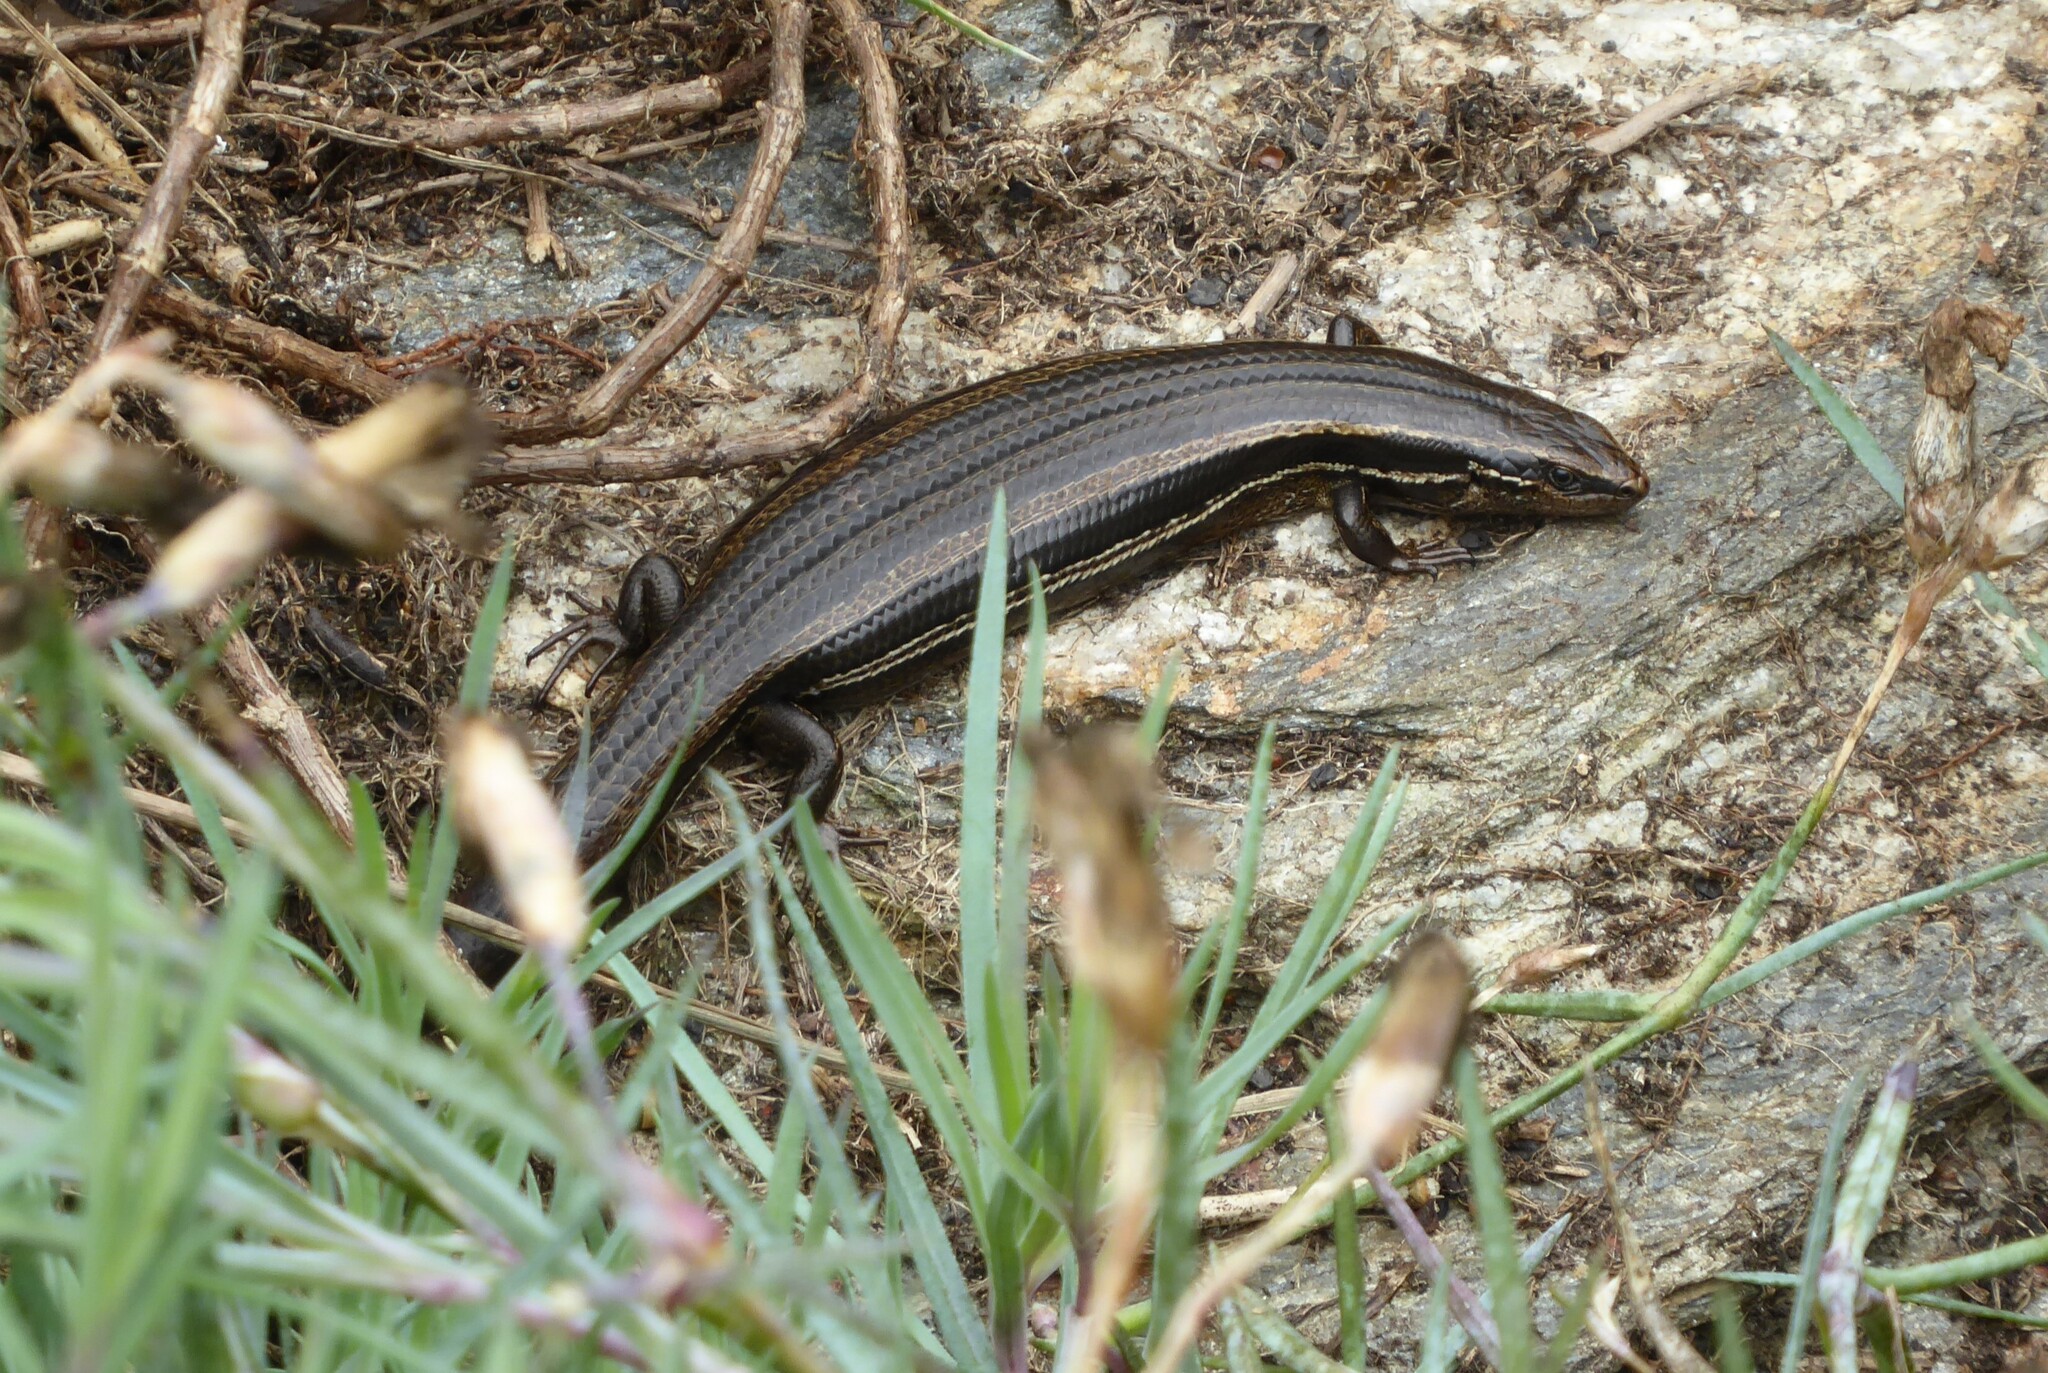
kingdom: Animalia
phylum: Chordata
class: Squamata
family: Scincidae
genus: Oligosoma
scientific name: Oligosoma polychroma
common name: Common new zealand skink
